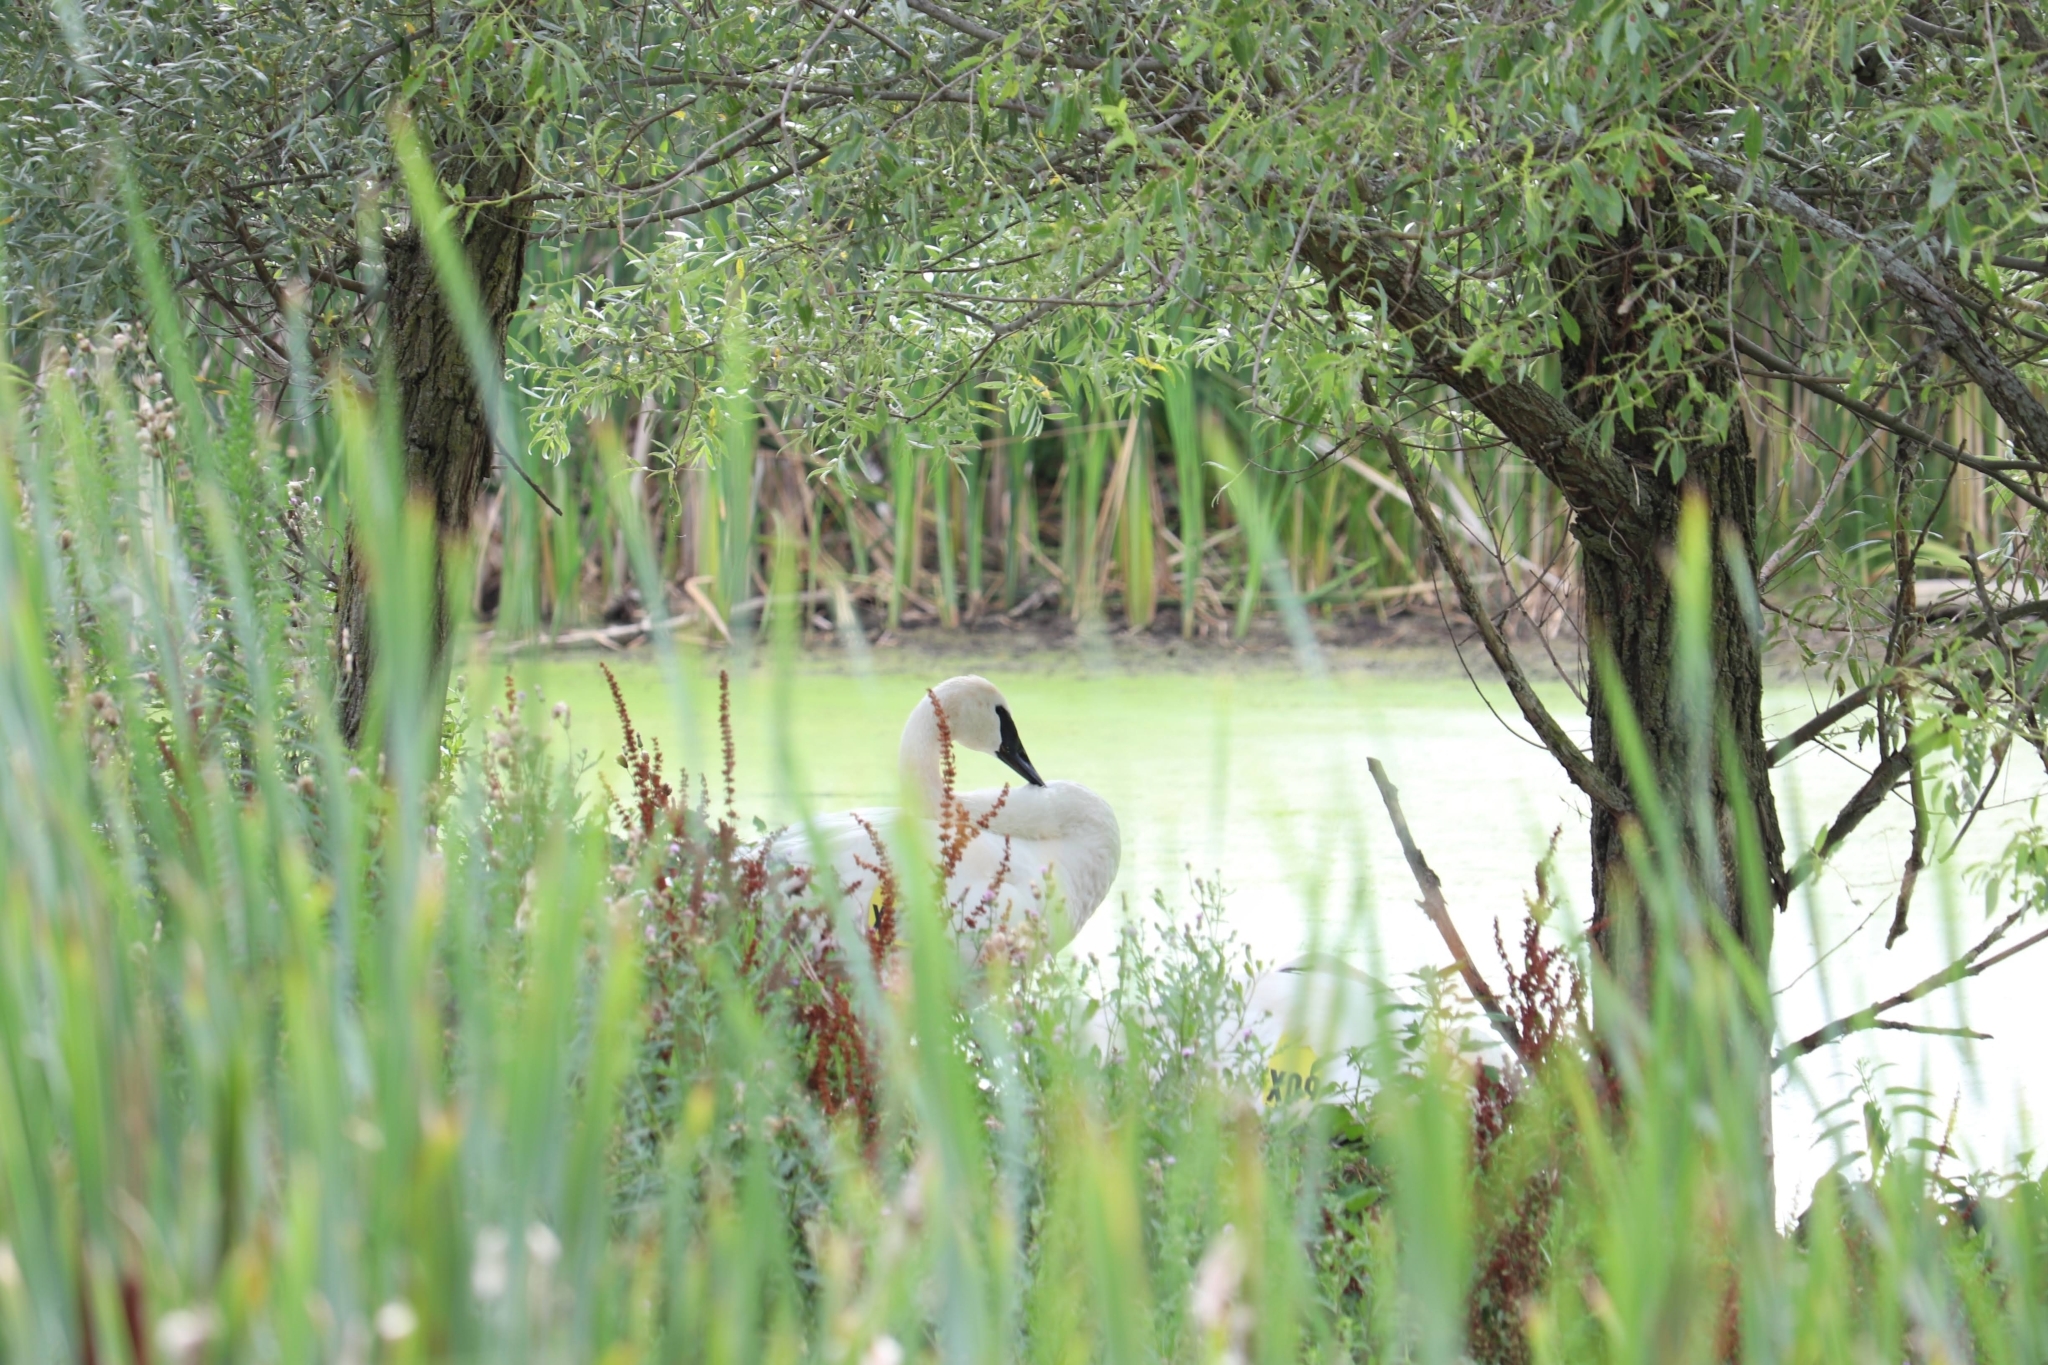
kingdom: Animalia
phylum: Chordata
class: Aves
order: Anseriformes
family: Anatidae
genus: Cygnus
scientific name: Cygnus buccinator
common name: Trumpeter swan
